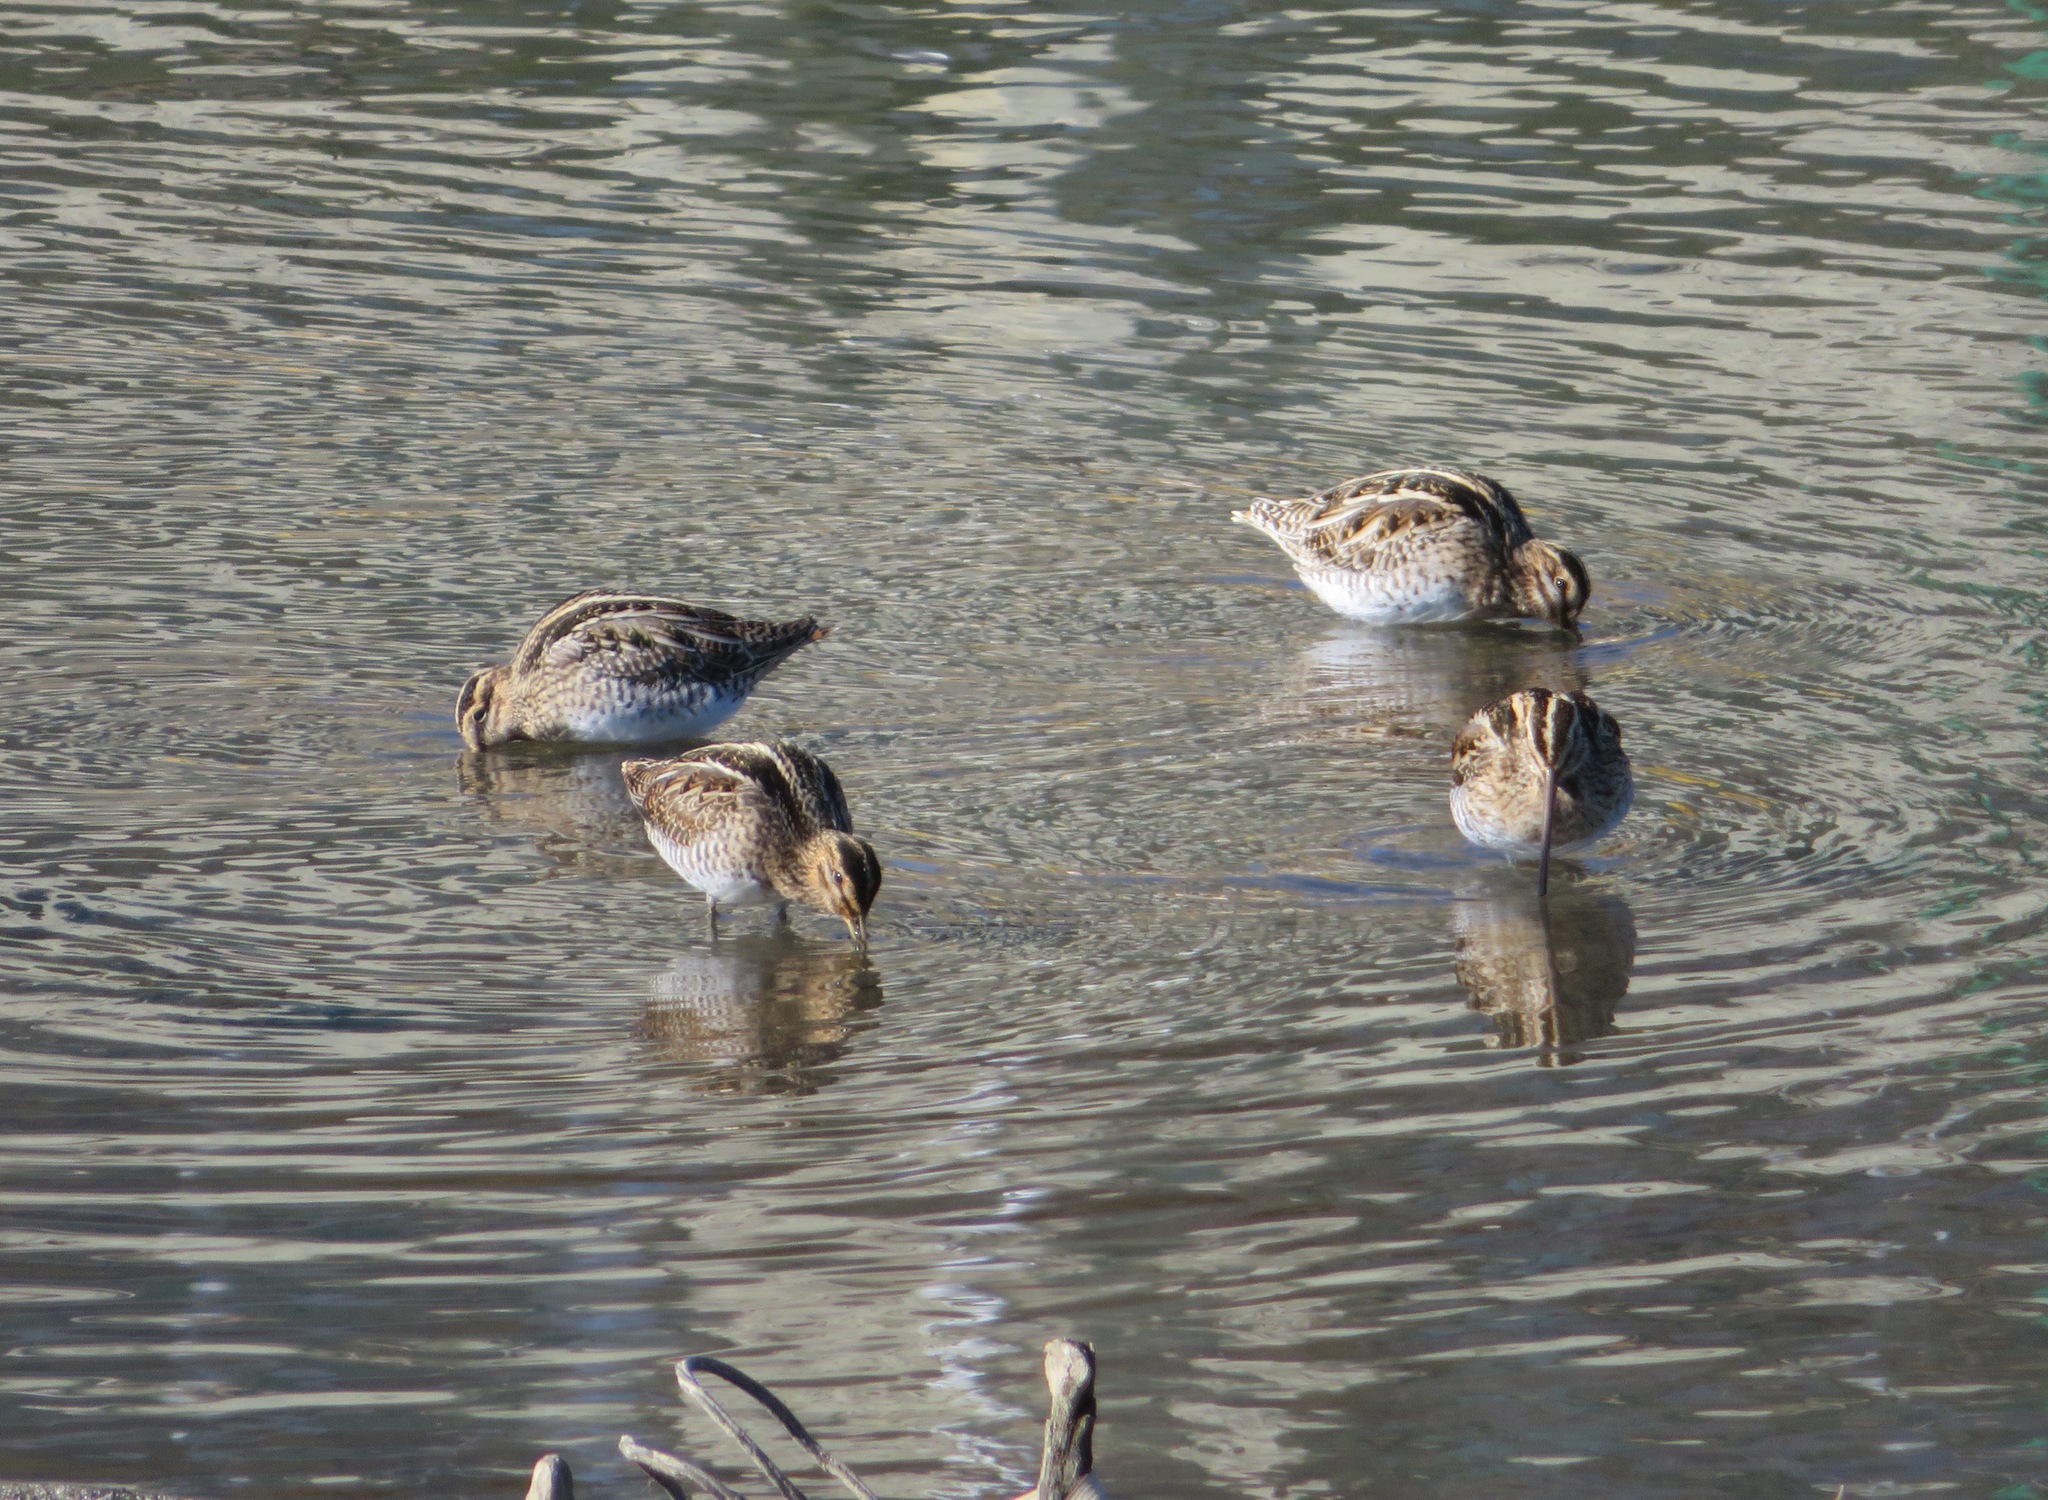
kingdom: Animalia
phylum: Chordata
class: Aves
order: Charadriiformes
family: Scolopacidae
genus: Gallinago
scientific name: Gallinago gallinago
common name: Common snipe
